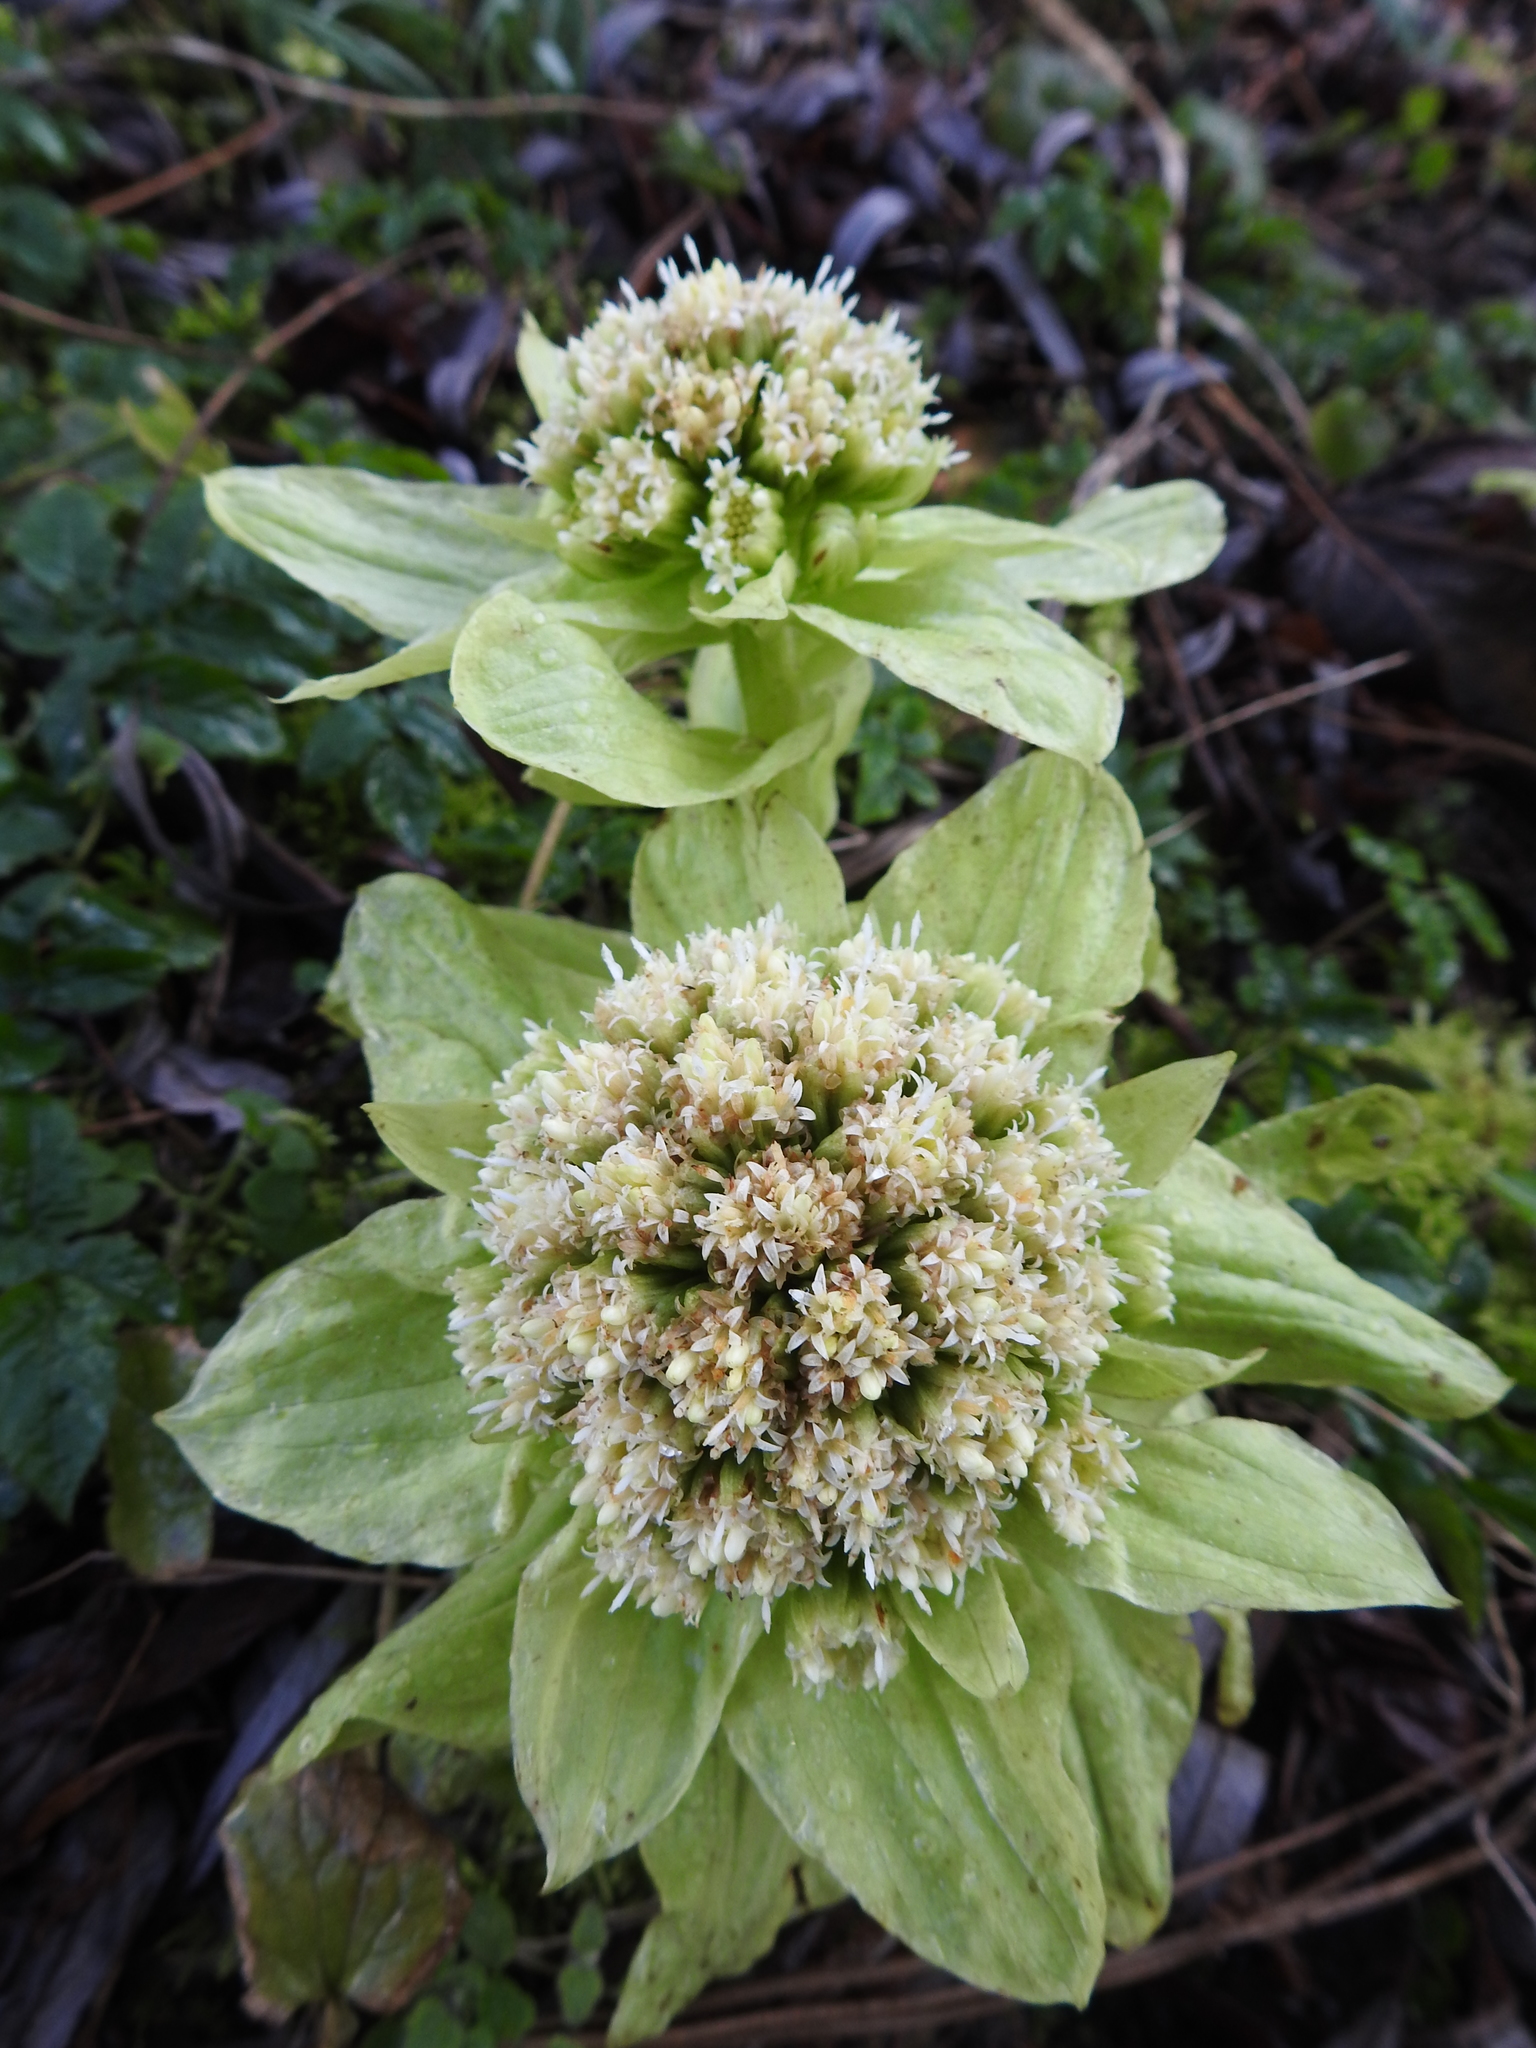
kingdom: Plantae
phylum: Tracheophyta
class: Magnoliopsida
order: Asterales
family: Asteraceae
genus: Petasites
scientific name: Petasites japonicus
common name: Giant butterbur
